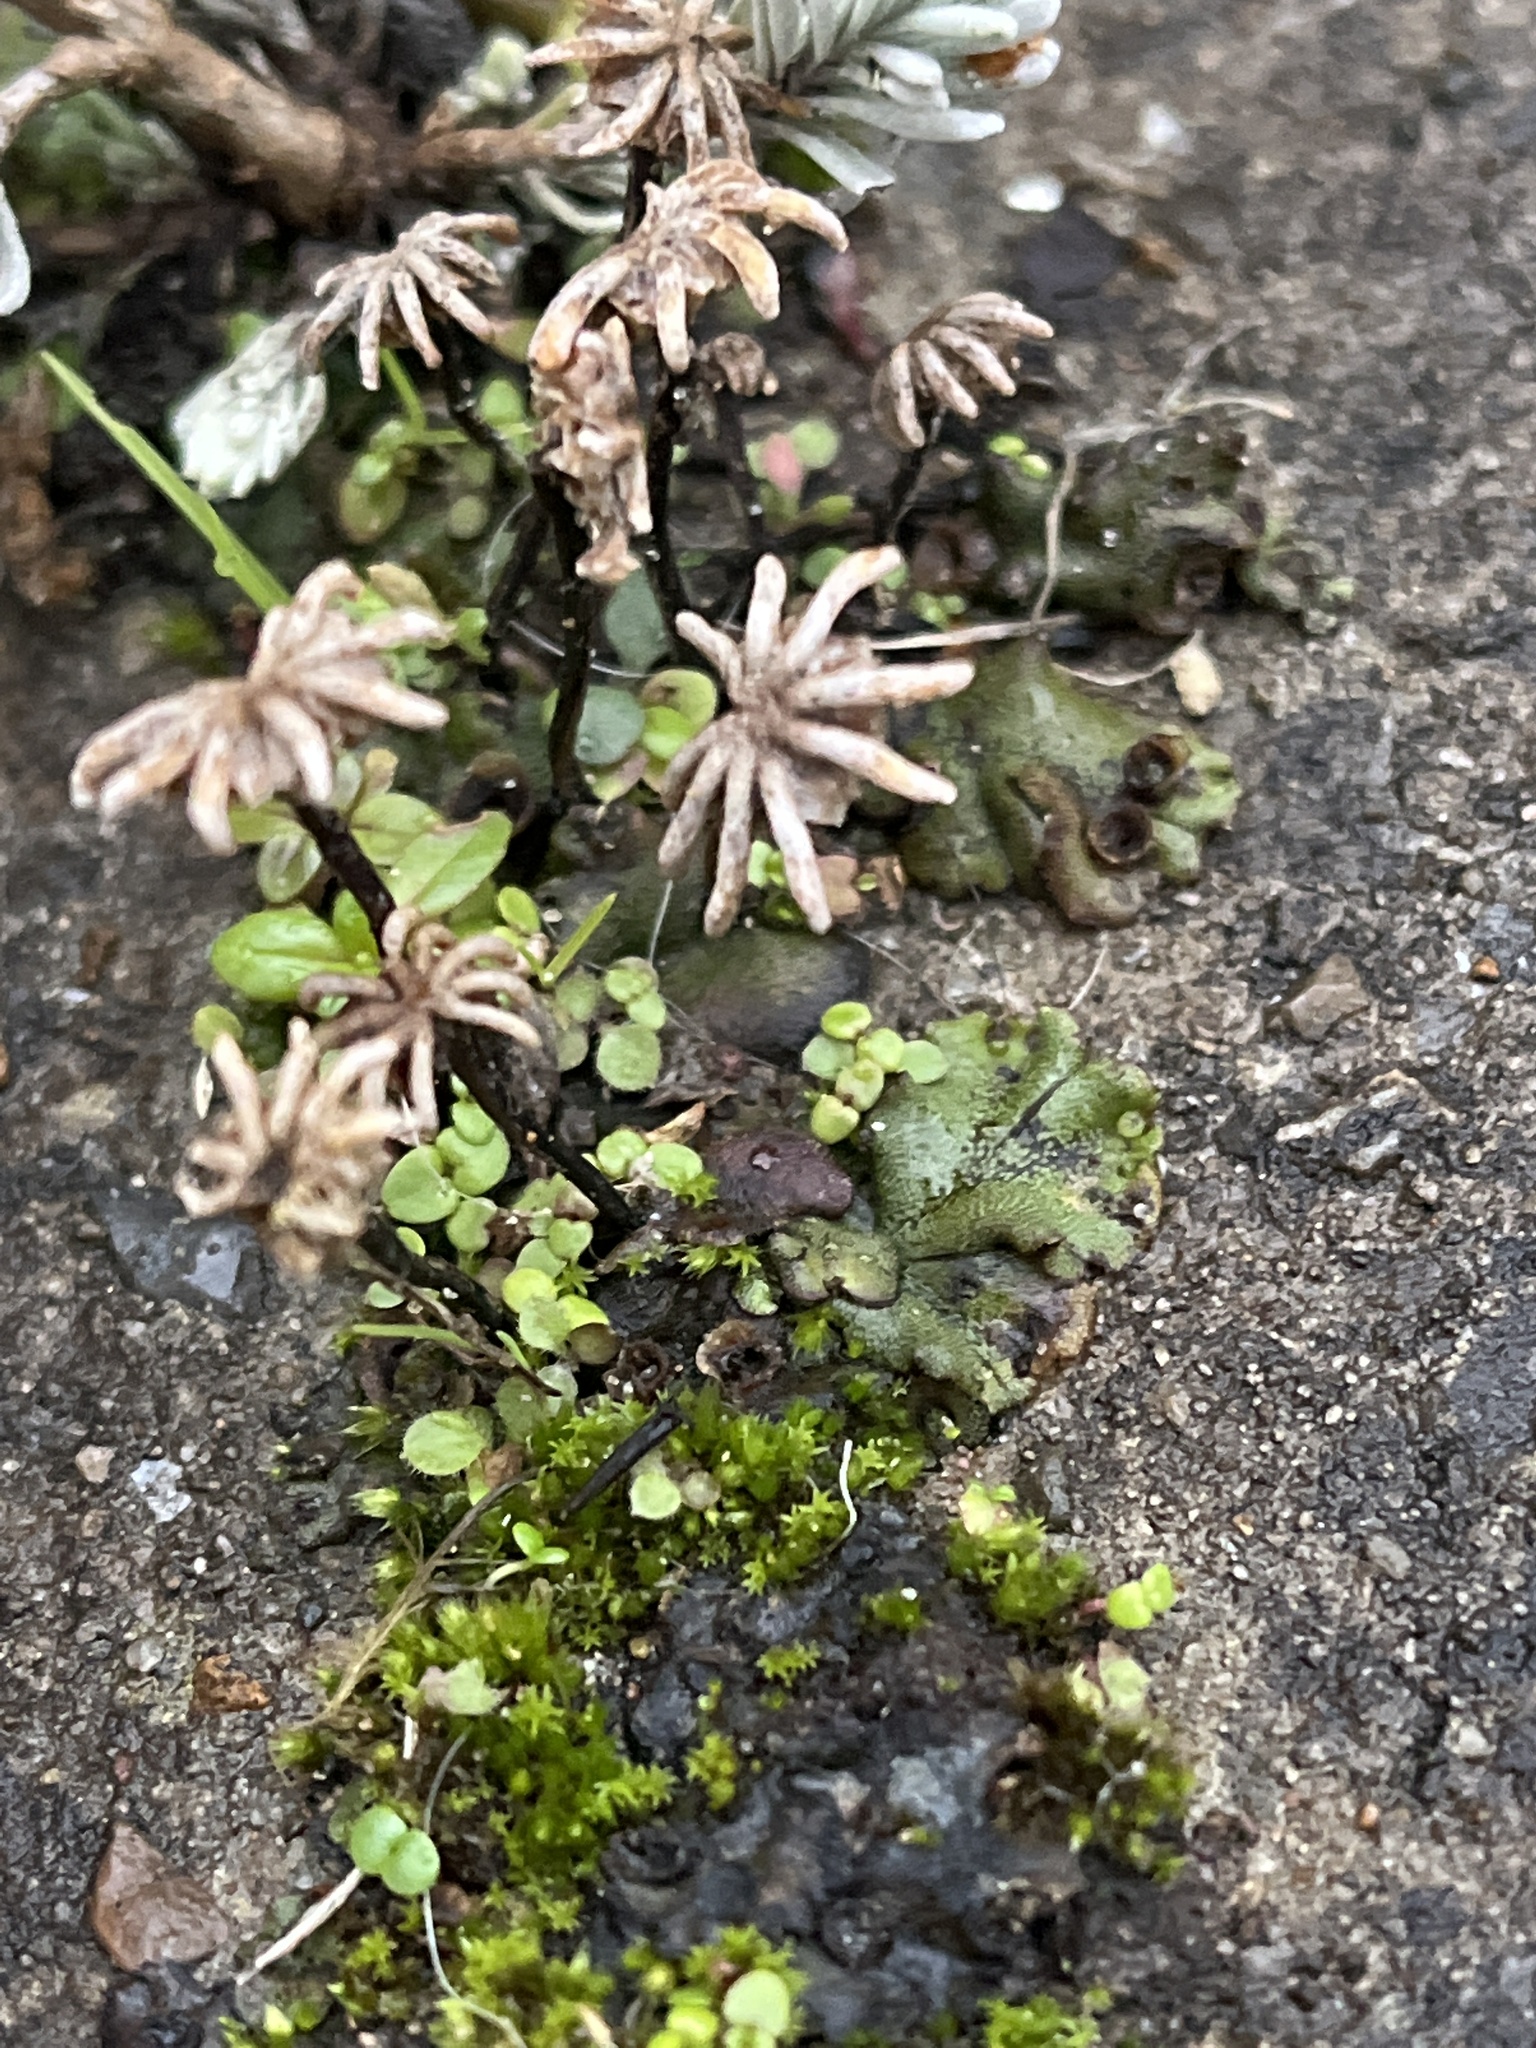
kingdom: Plantae
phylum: Marchantiophyta
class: Marchantiopsida
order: Marchantiales
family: Marchantiaceae
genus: Marchantia
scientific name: Marchantia polymorpha
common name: Common liverwort
